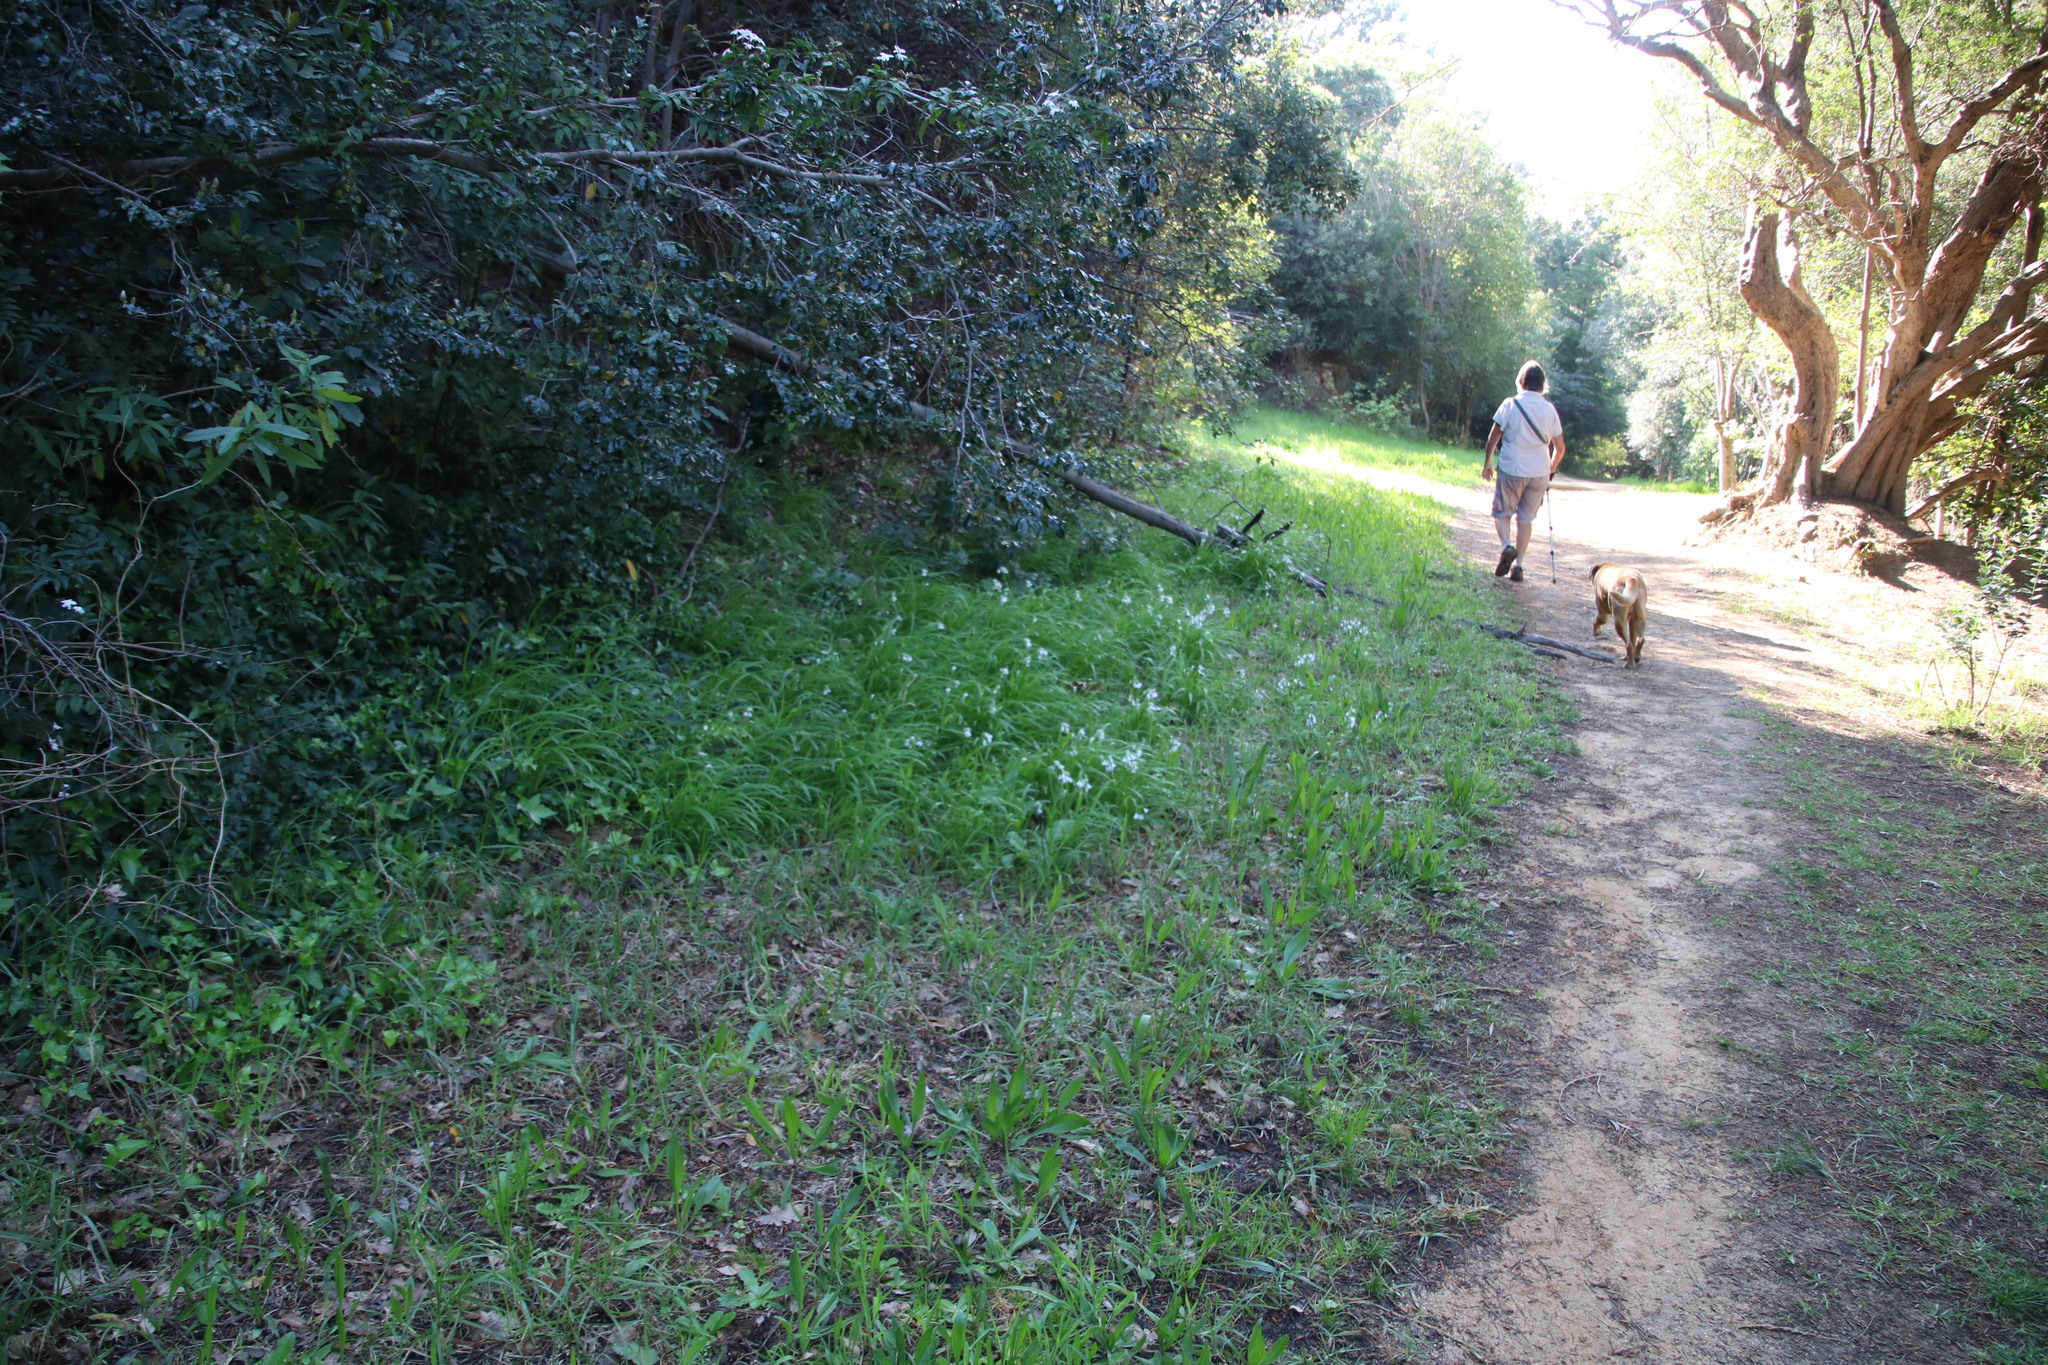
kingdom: Plantae
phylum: Tracheophyta
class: Liliopsida
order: Asparagales
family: Amaryllidaceae
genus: Allium
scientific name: Allium triquetrum
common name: Three-cornered garlic
